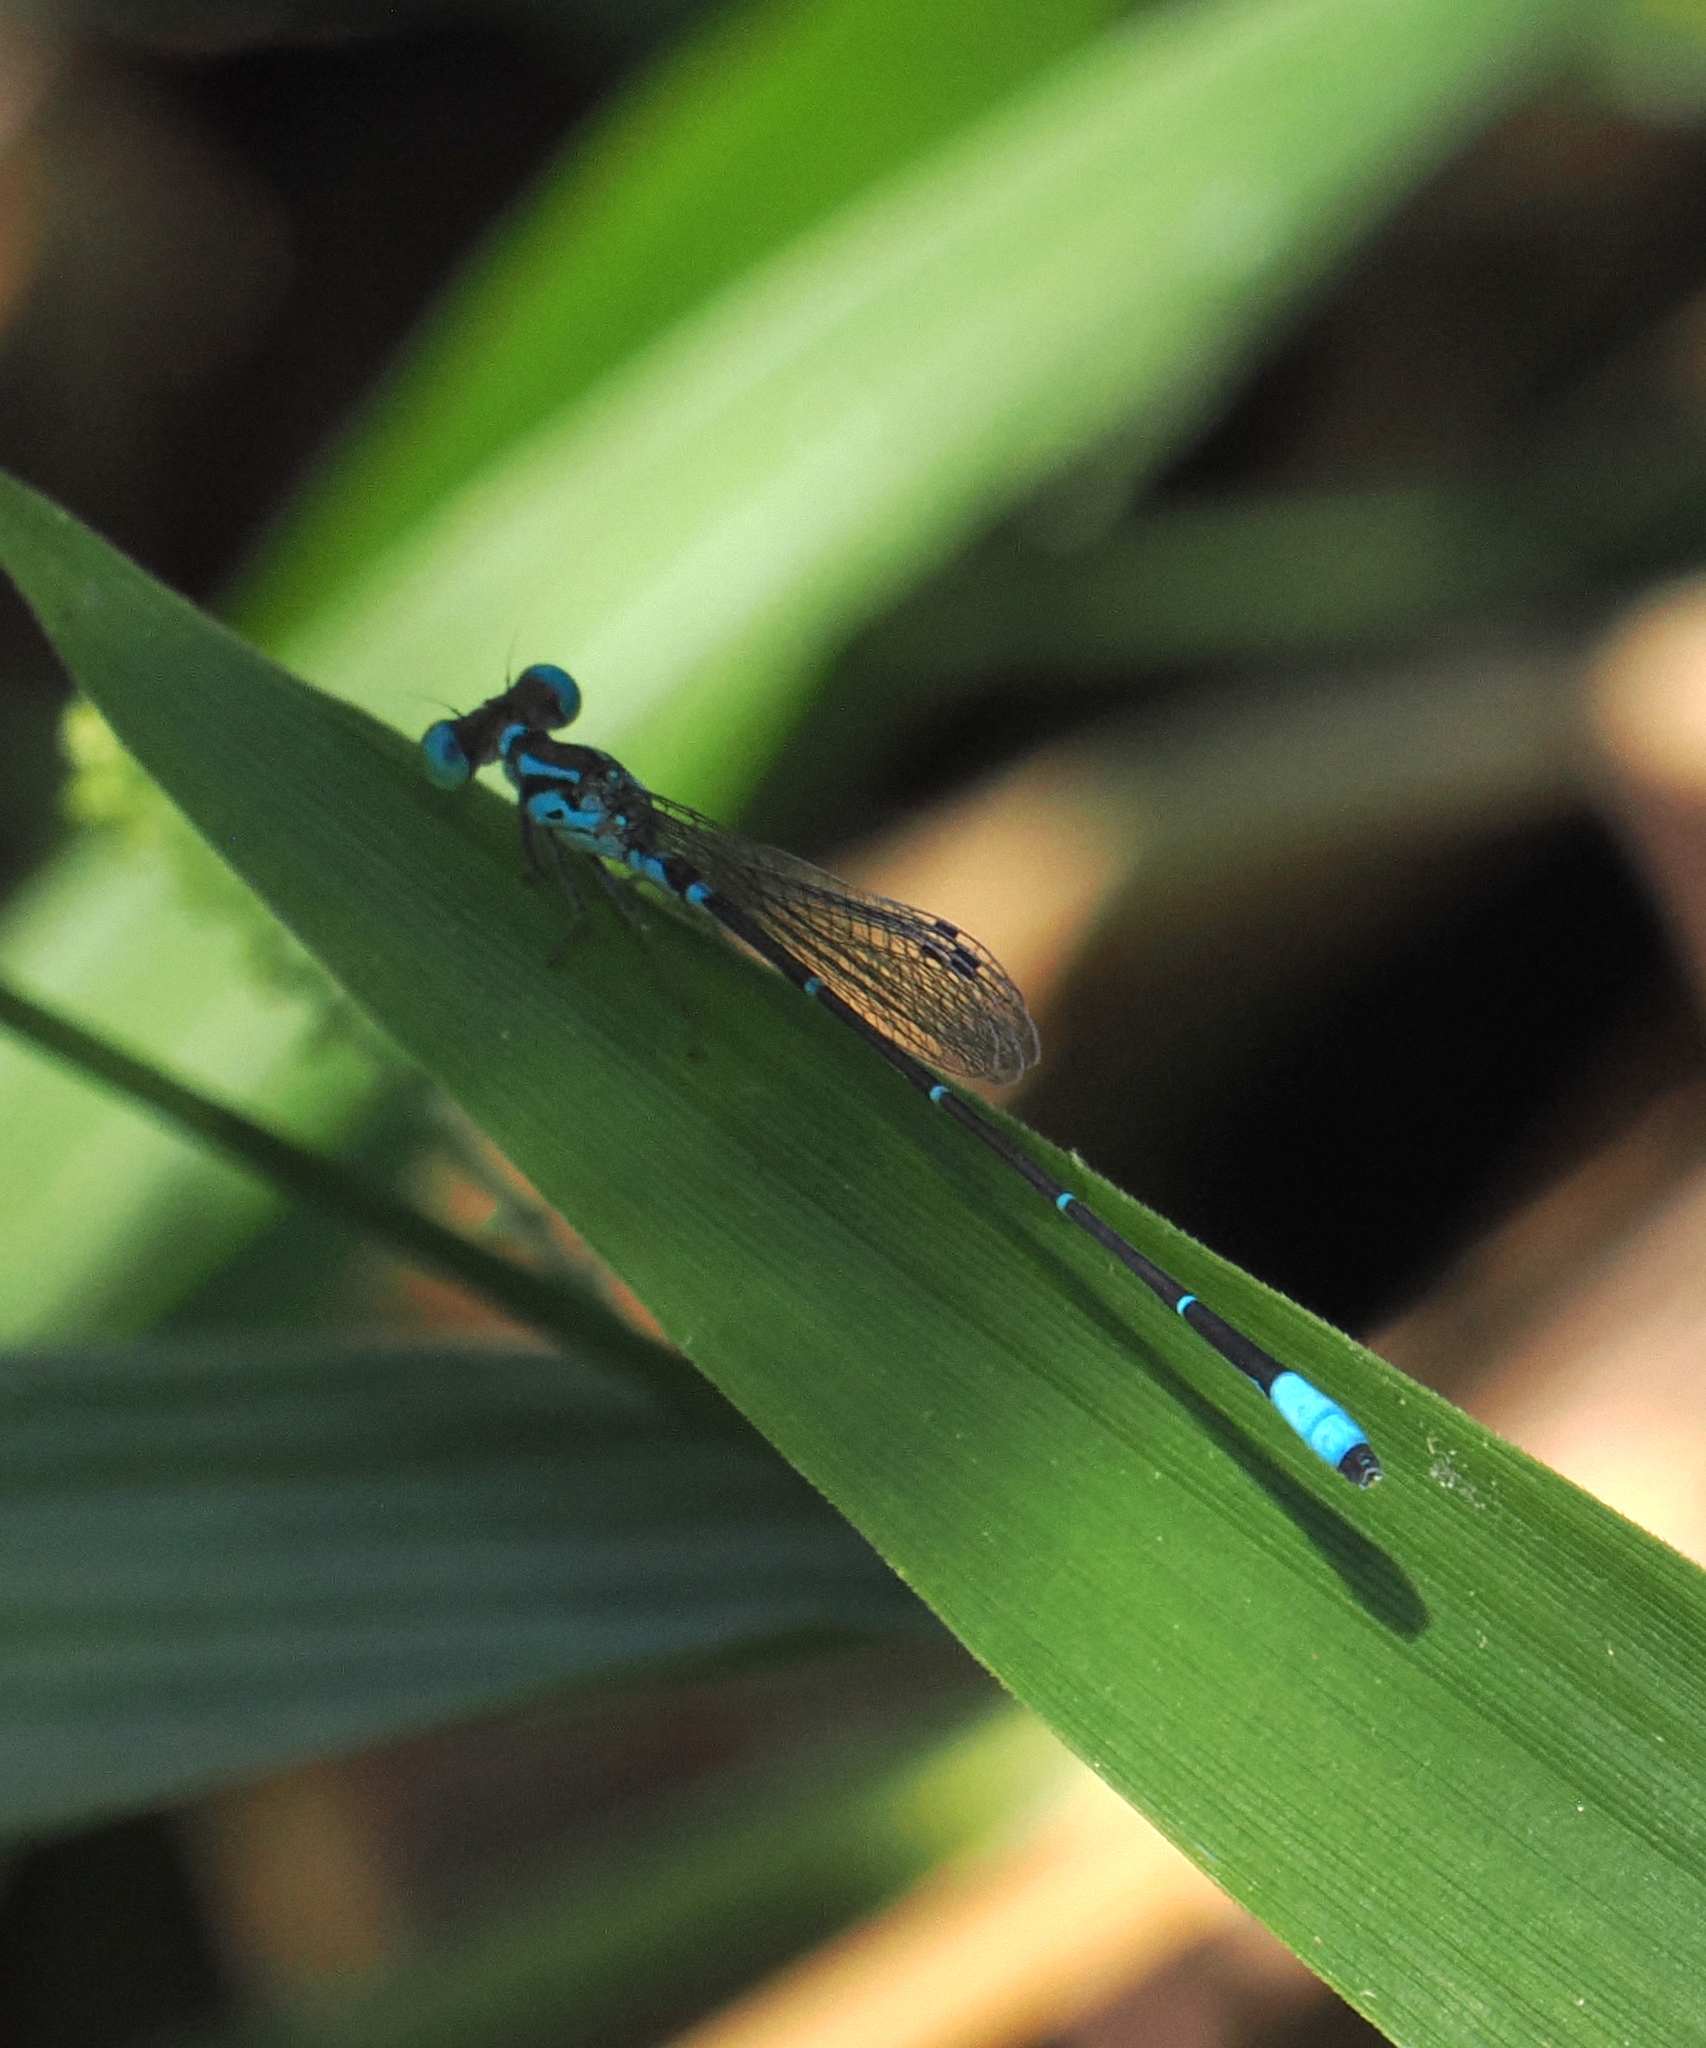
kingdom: Animalia
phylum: Arthropoda
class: Insecta
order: Odonata
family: Coenagrionidae
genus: Telebasis
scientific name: Telebasis williamsoni
